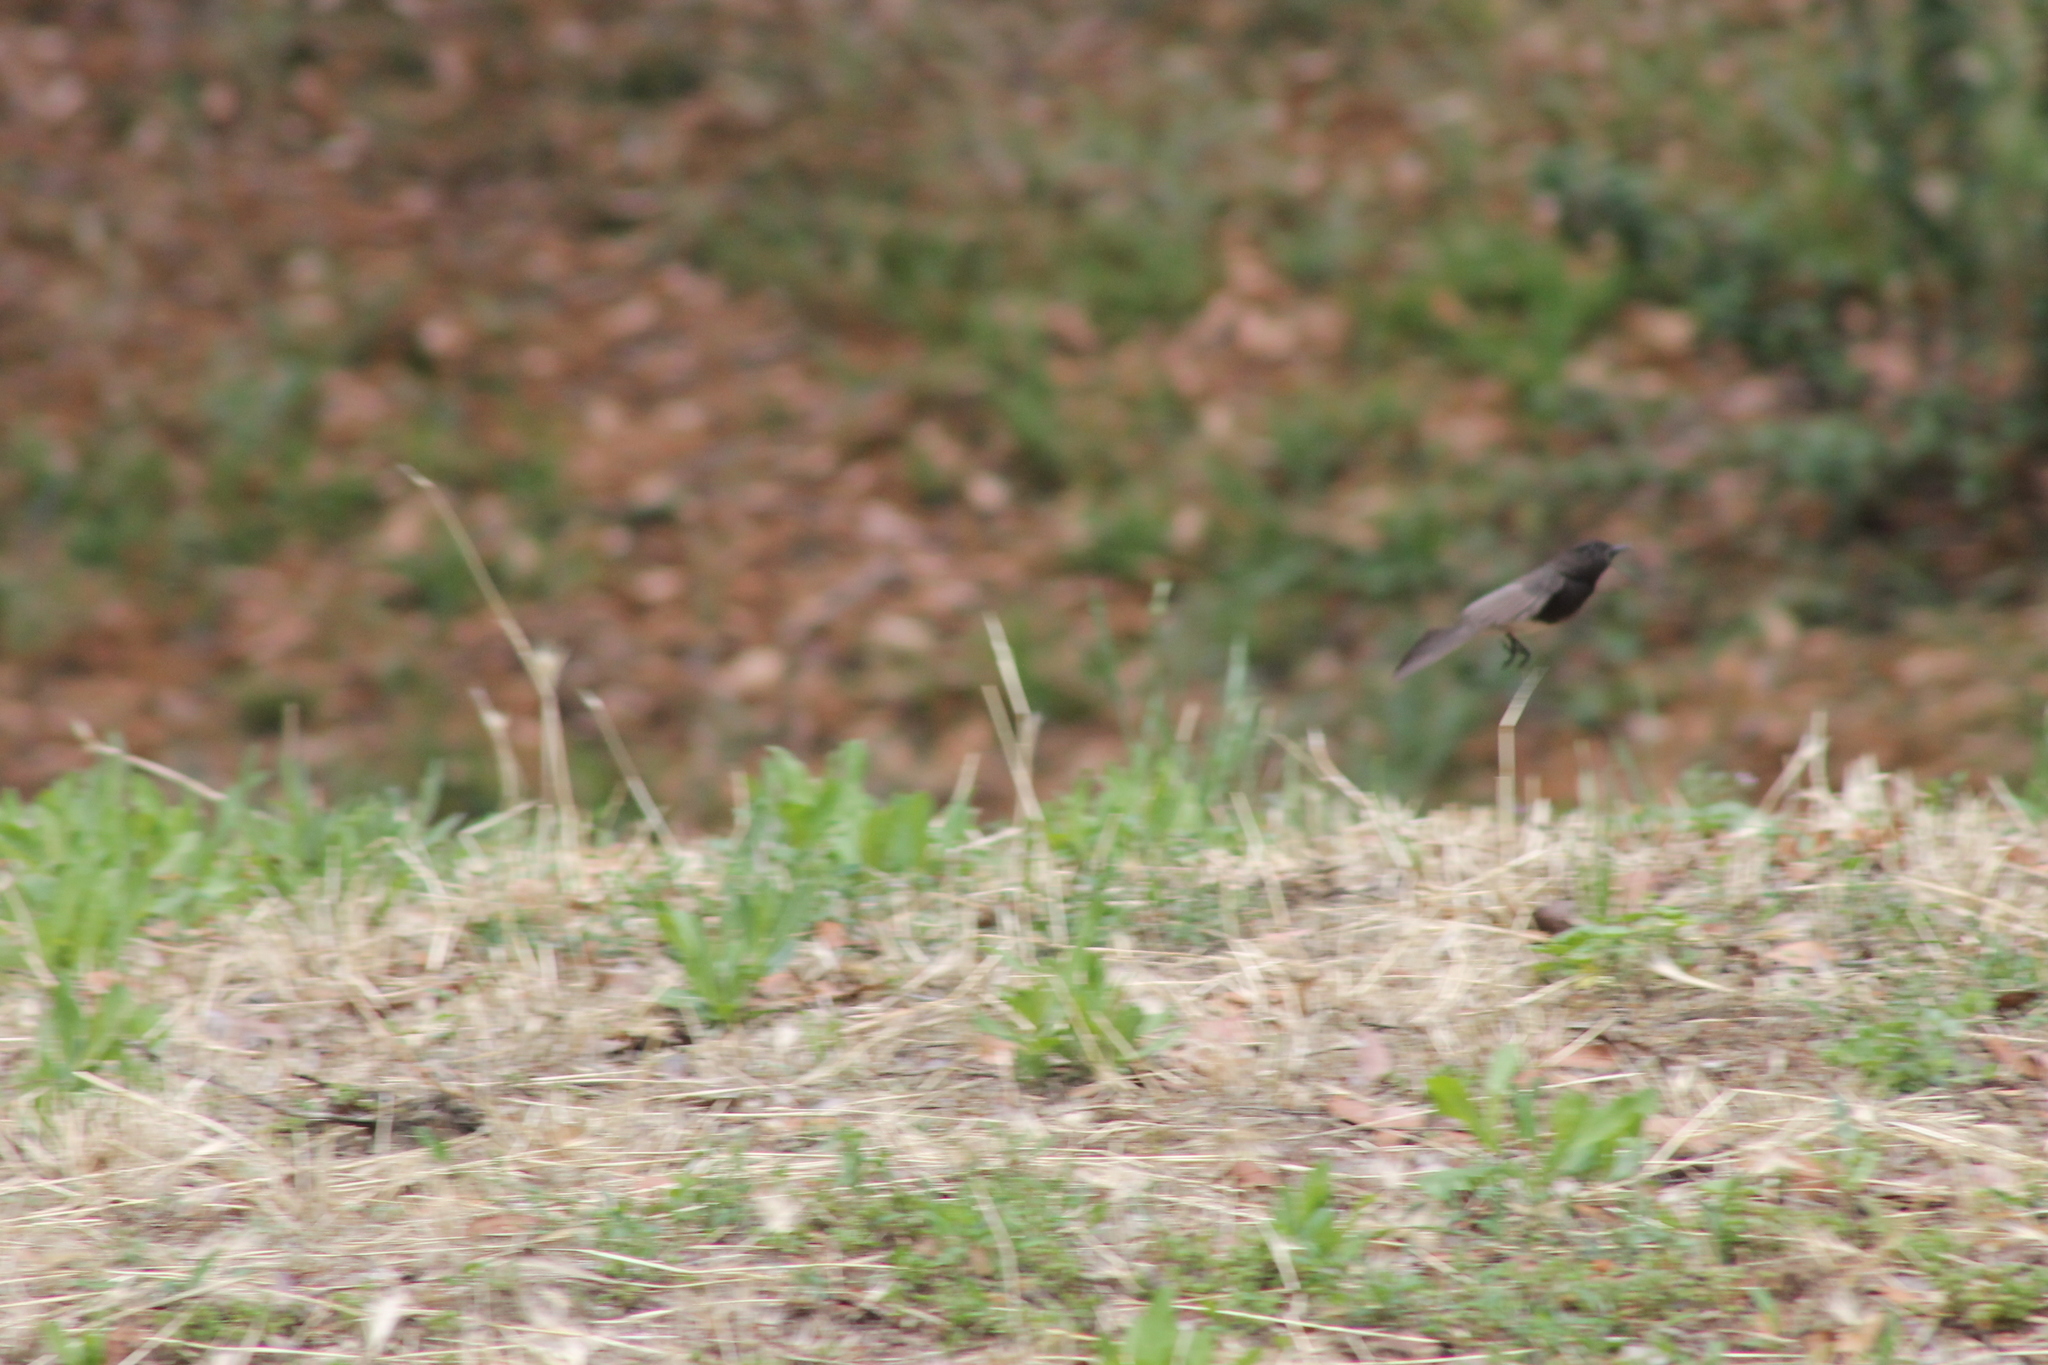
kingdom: Animalia
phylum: Chordata
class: Aves
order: Passeriformes
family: Tyrannidae
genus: Sayornis
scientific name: Sayornis nigricans
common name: Black phoebe
